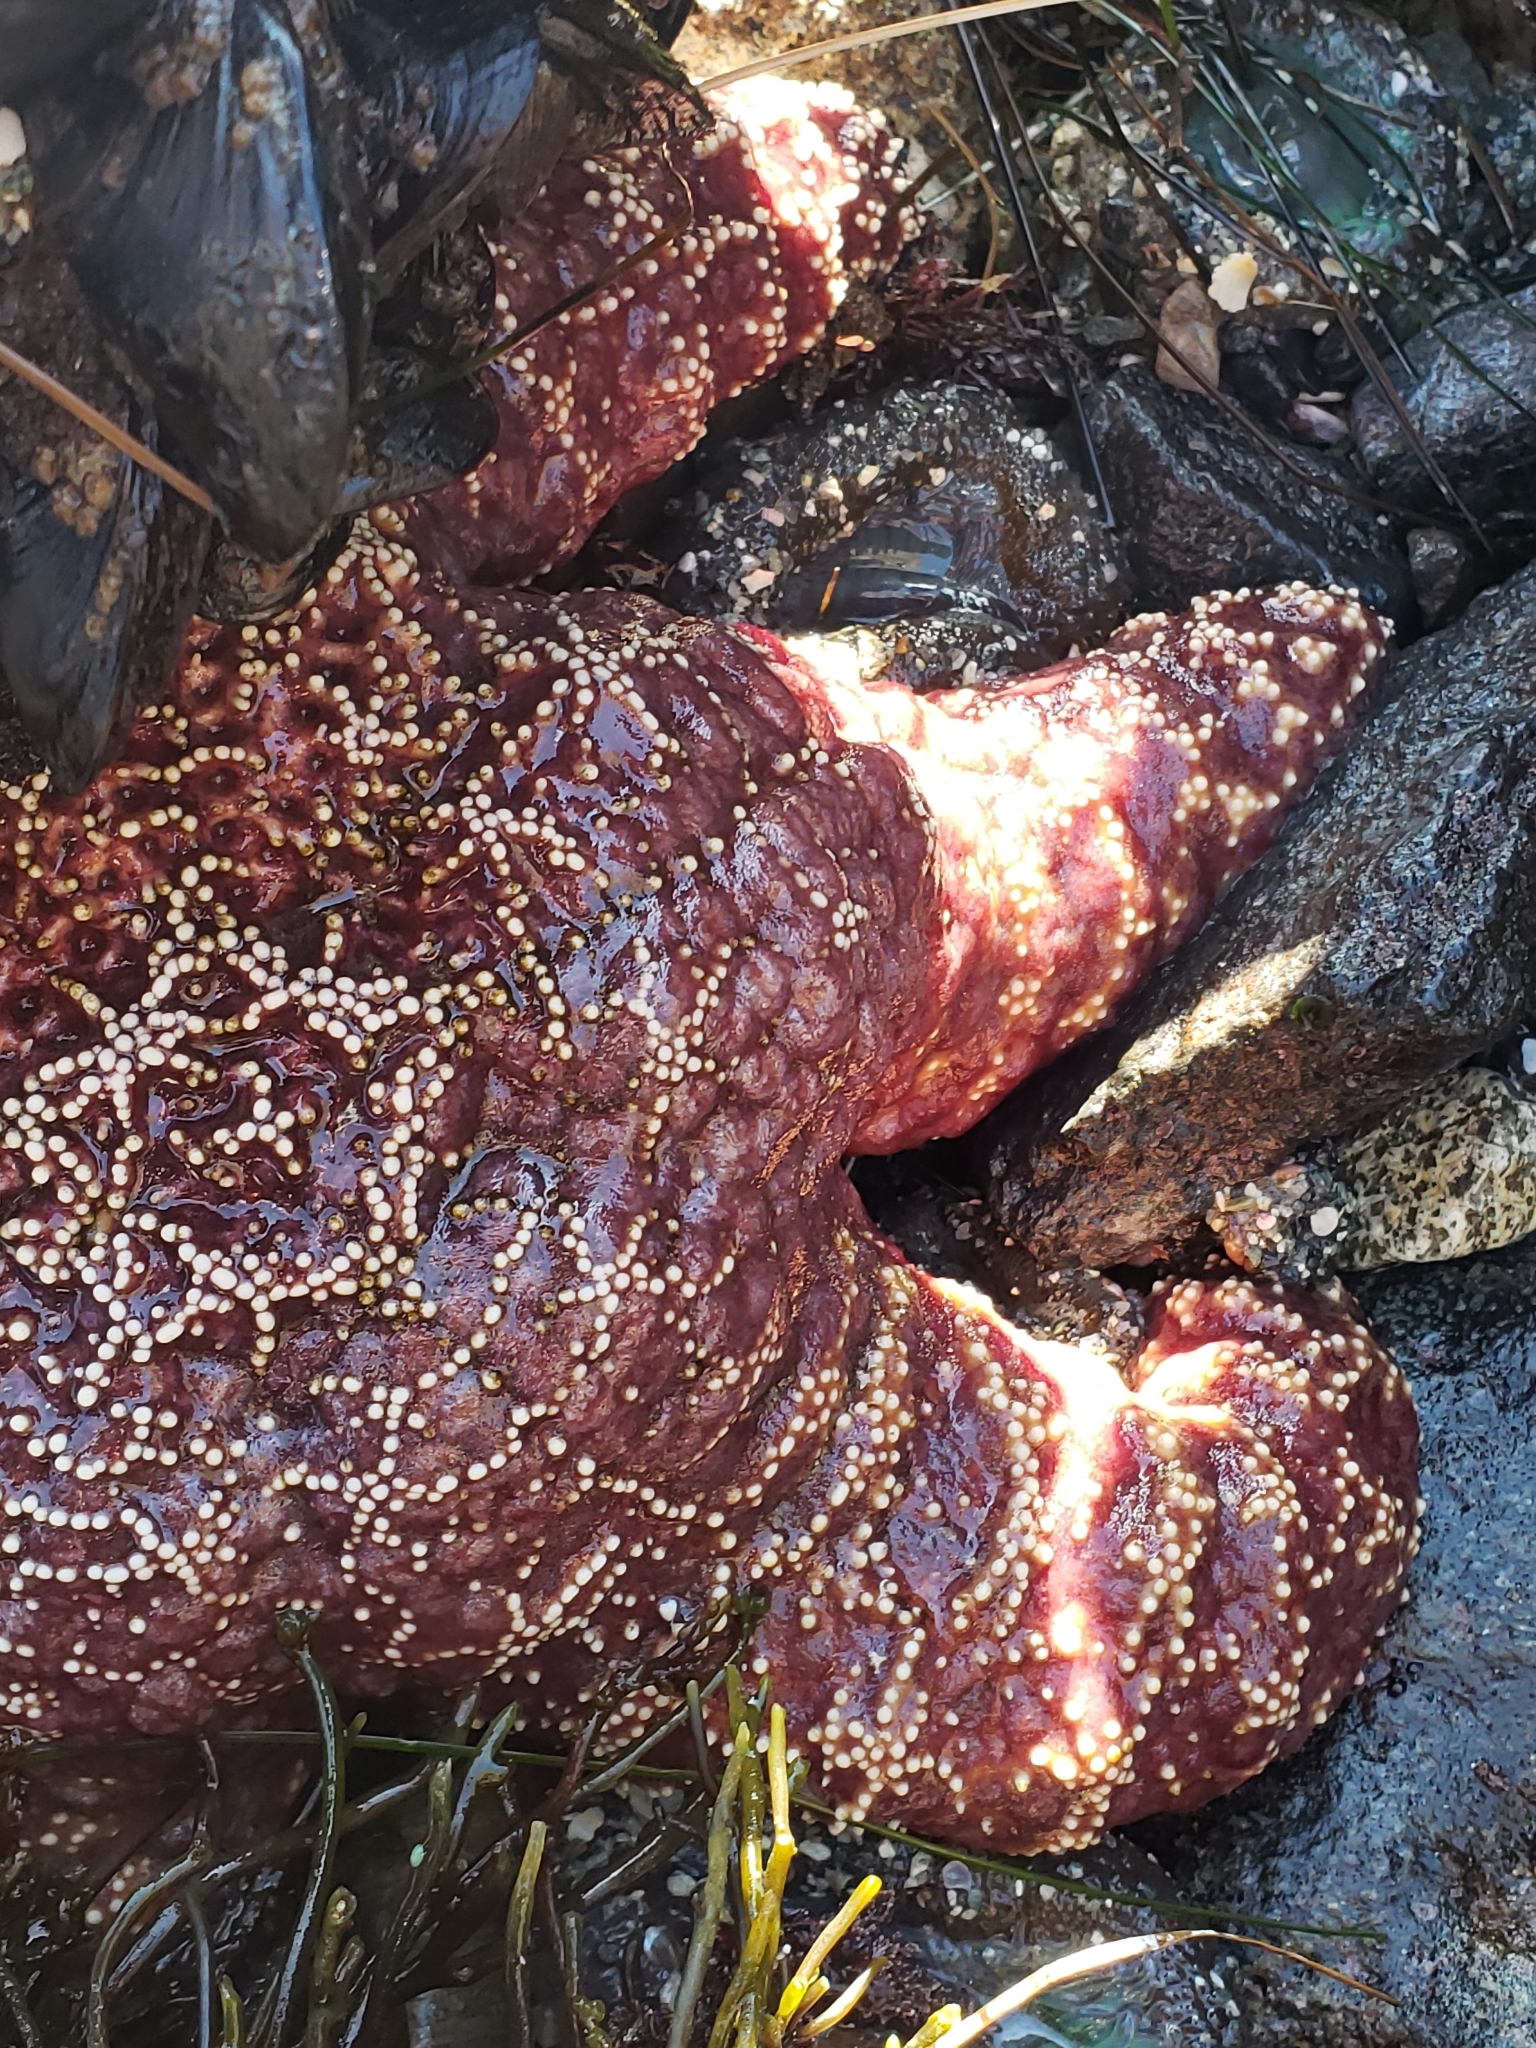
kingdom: Animalia
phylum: Echinodermata
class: Asteroidea
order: Forcipulatida
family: Asteriidae
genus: Pisaster
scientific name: Pisaster ochraceus
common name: Ochre stars
